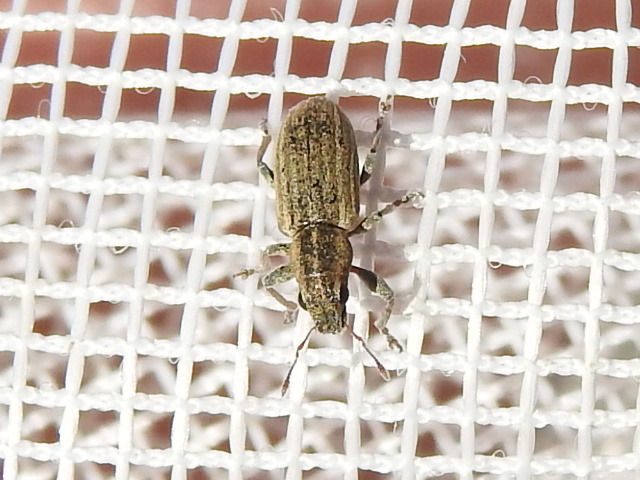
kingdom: Animalia
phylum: Arthropoda
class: Insecta
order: Coleoptera
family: Curculionidae
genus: Sitona
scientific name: Sitona lineatus
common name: Weevil
